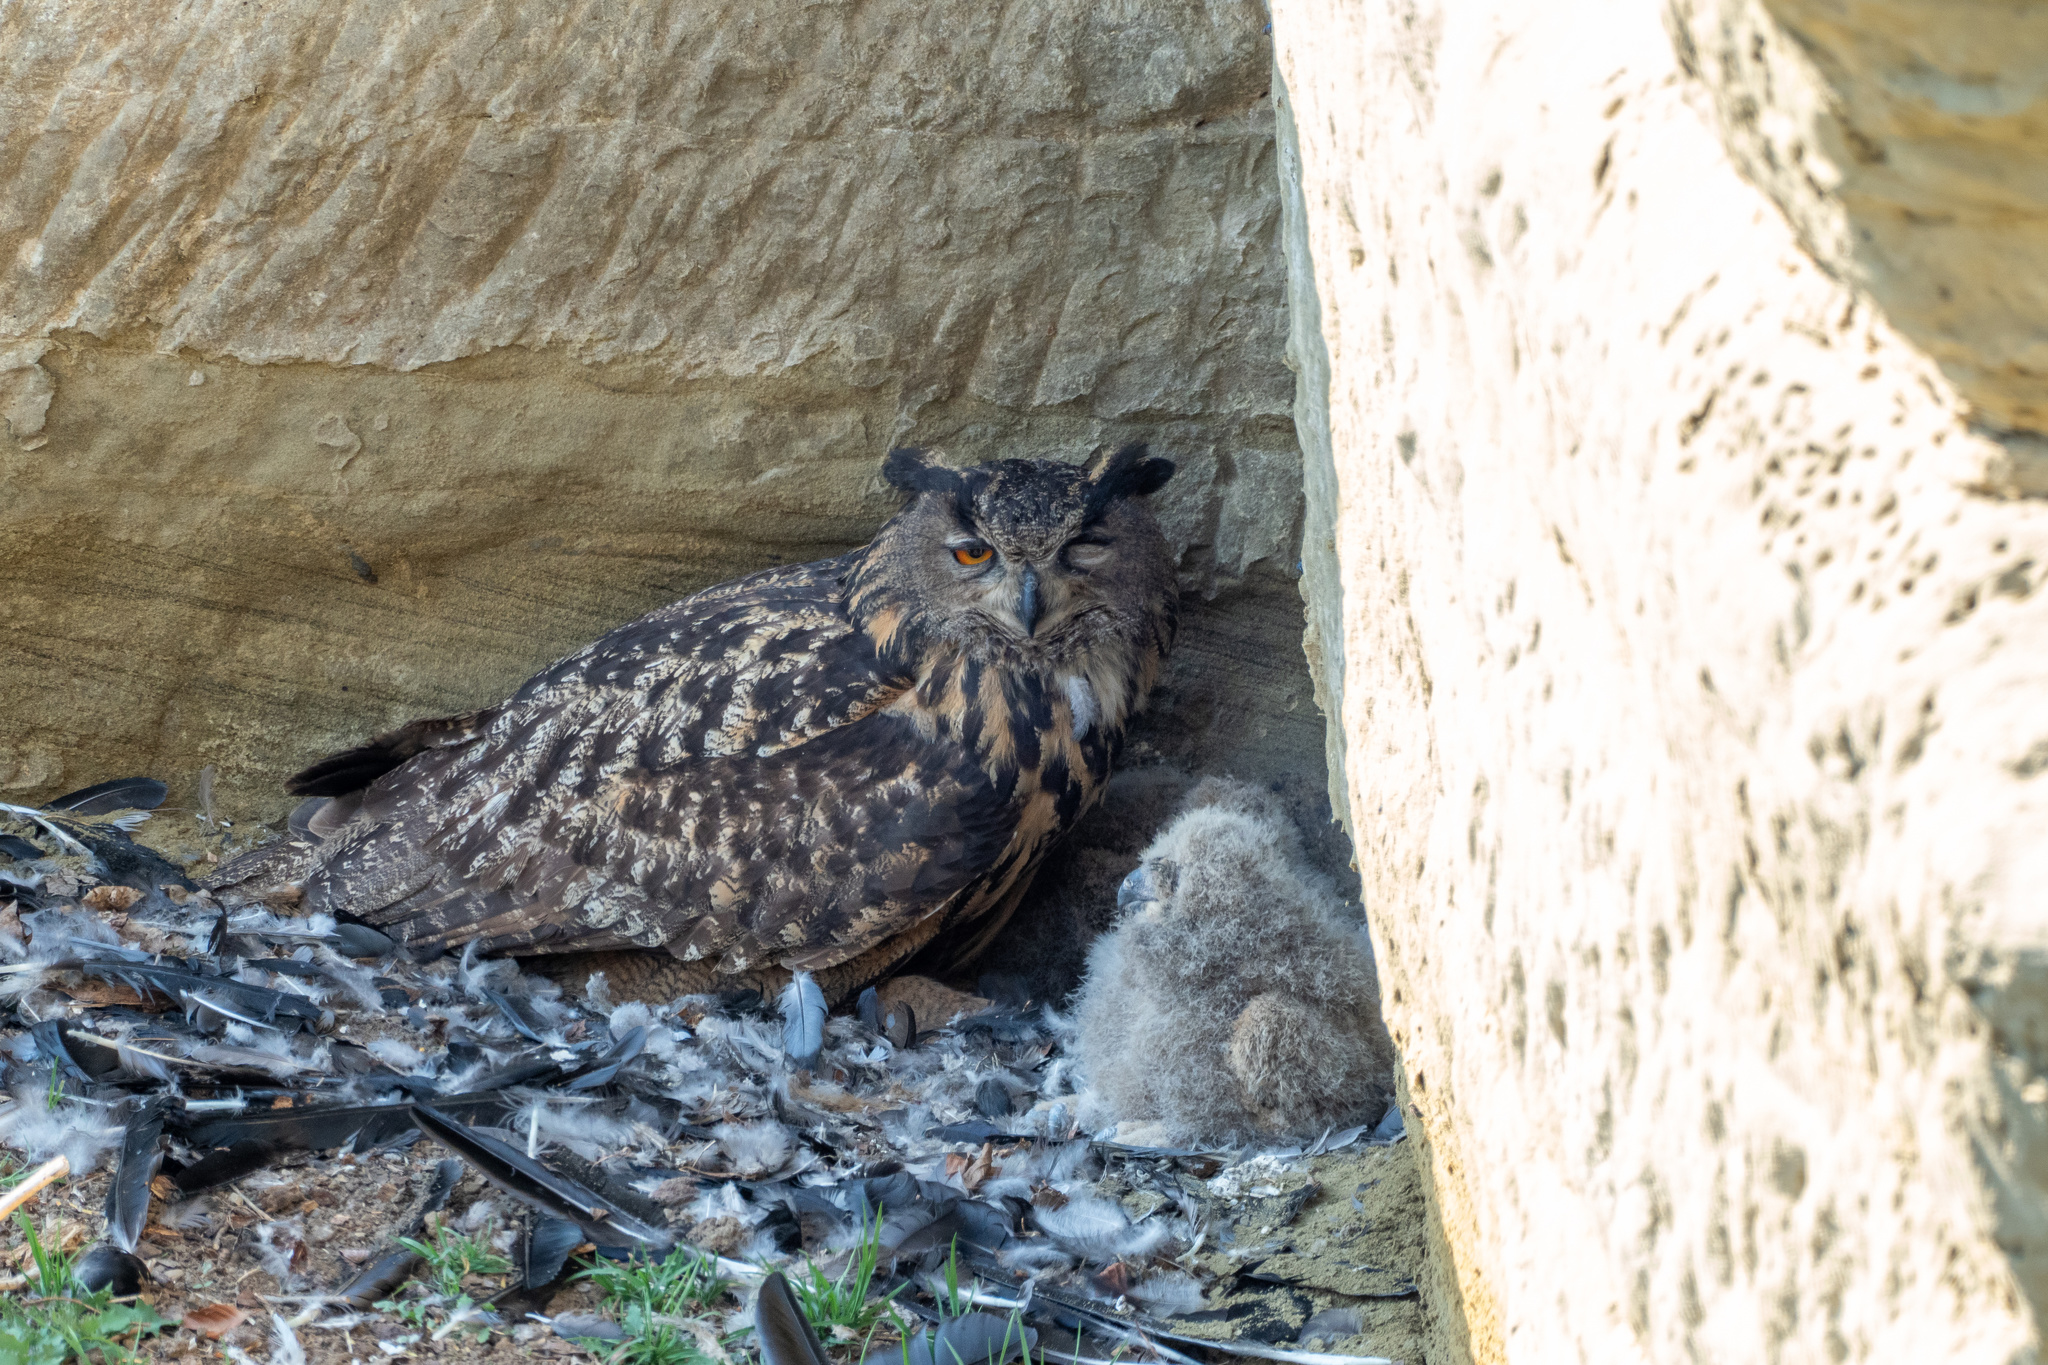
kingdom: Animalia
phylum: Chordata
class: Aves
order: Strigiformes
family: Strigidae
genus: Bubo
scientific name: Bubo bubo
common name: Eurasian eagle-owl
